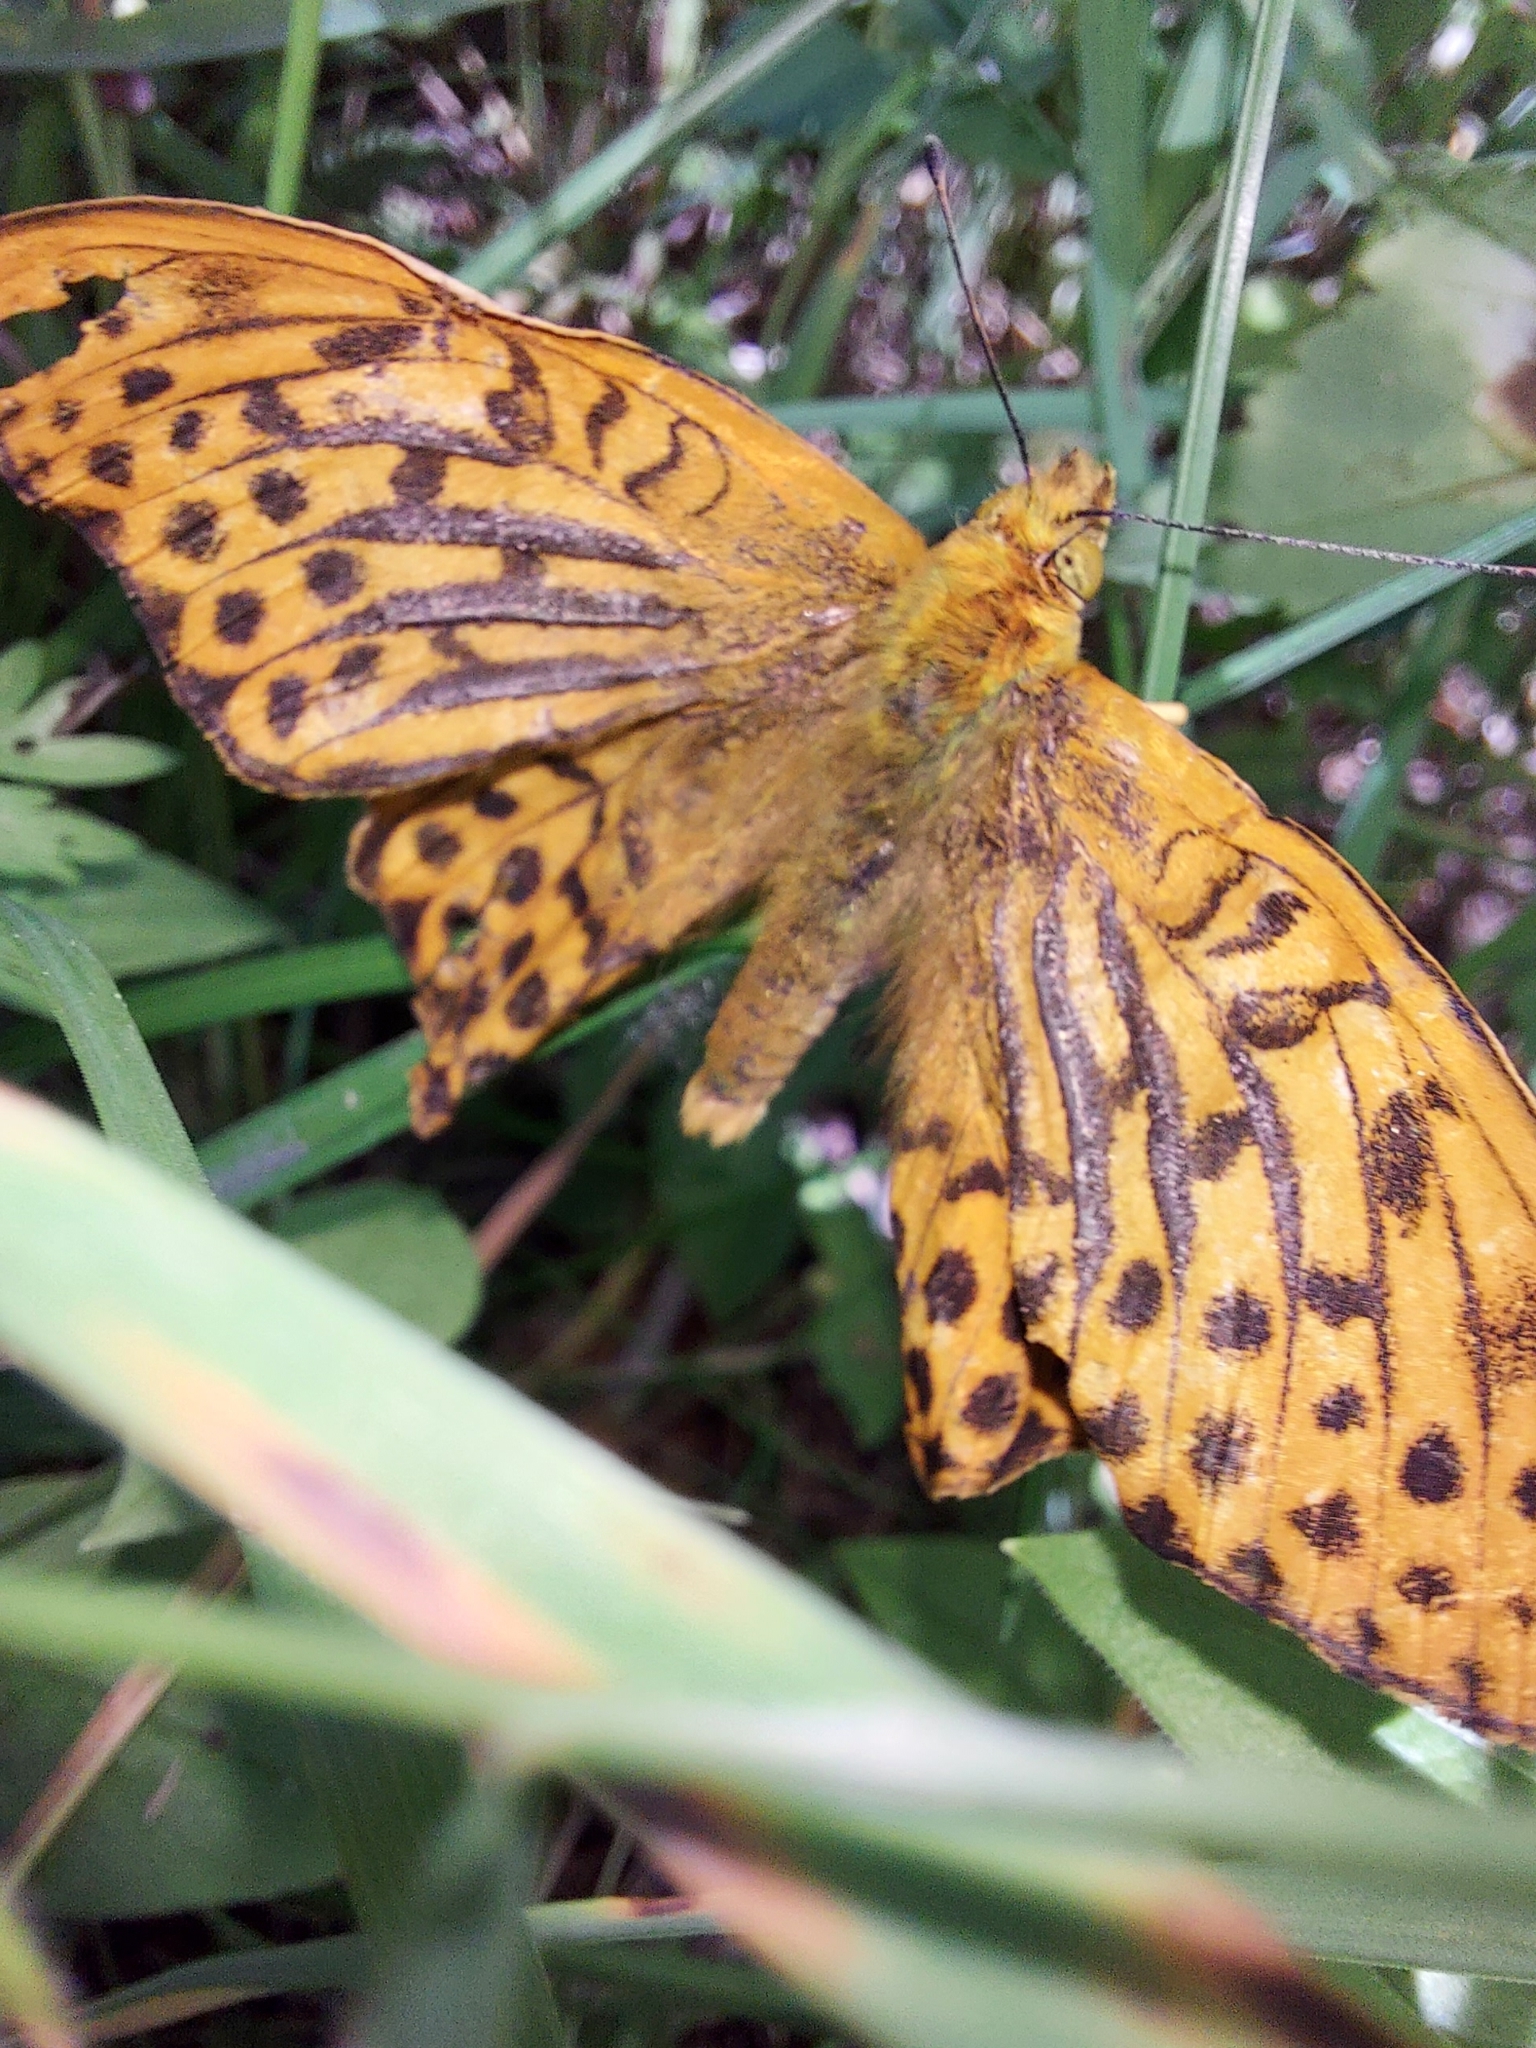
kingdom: Animalia
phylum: Arthropoda
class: Insecta
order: Lepidoptera
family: Nymphalidae
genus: Argynnis
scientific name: Argynnis paphia
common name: Silver-washed fritillary
